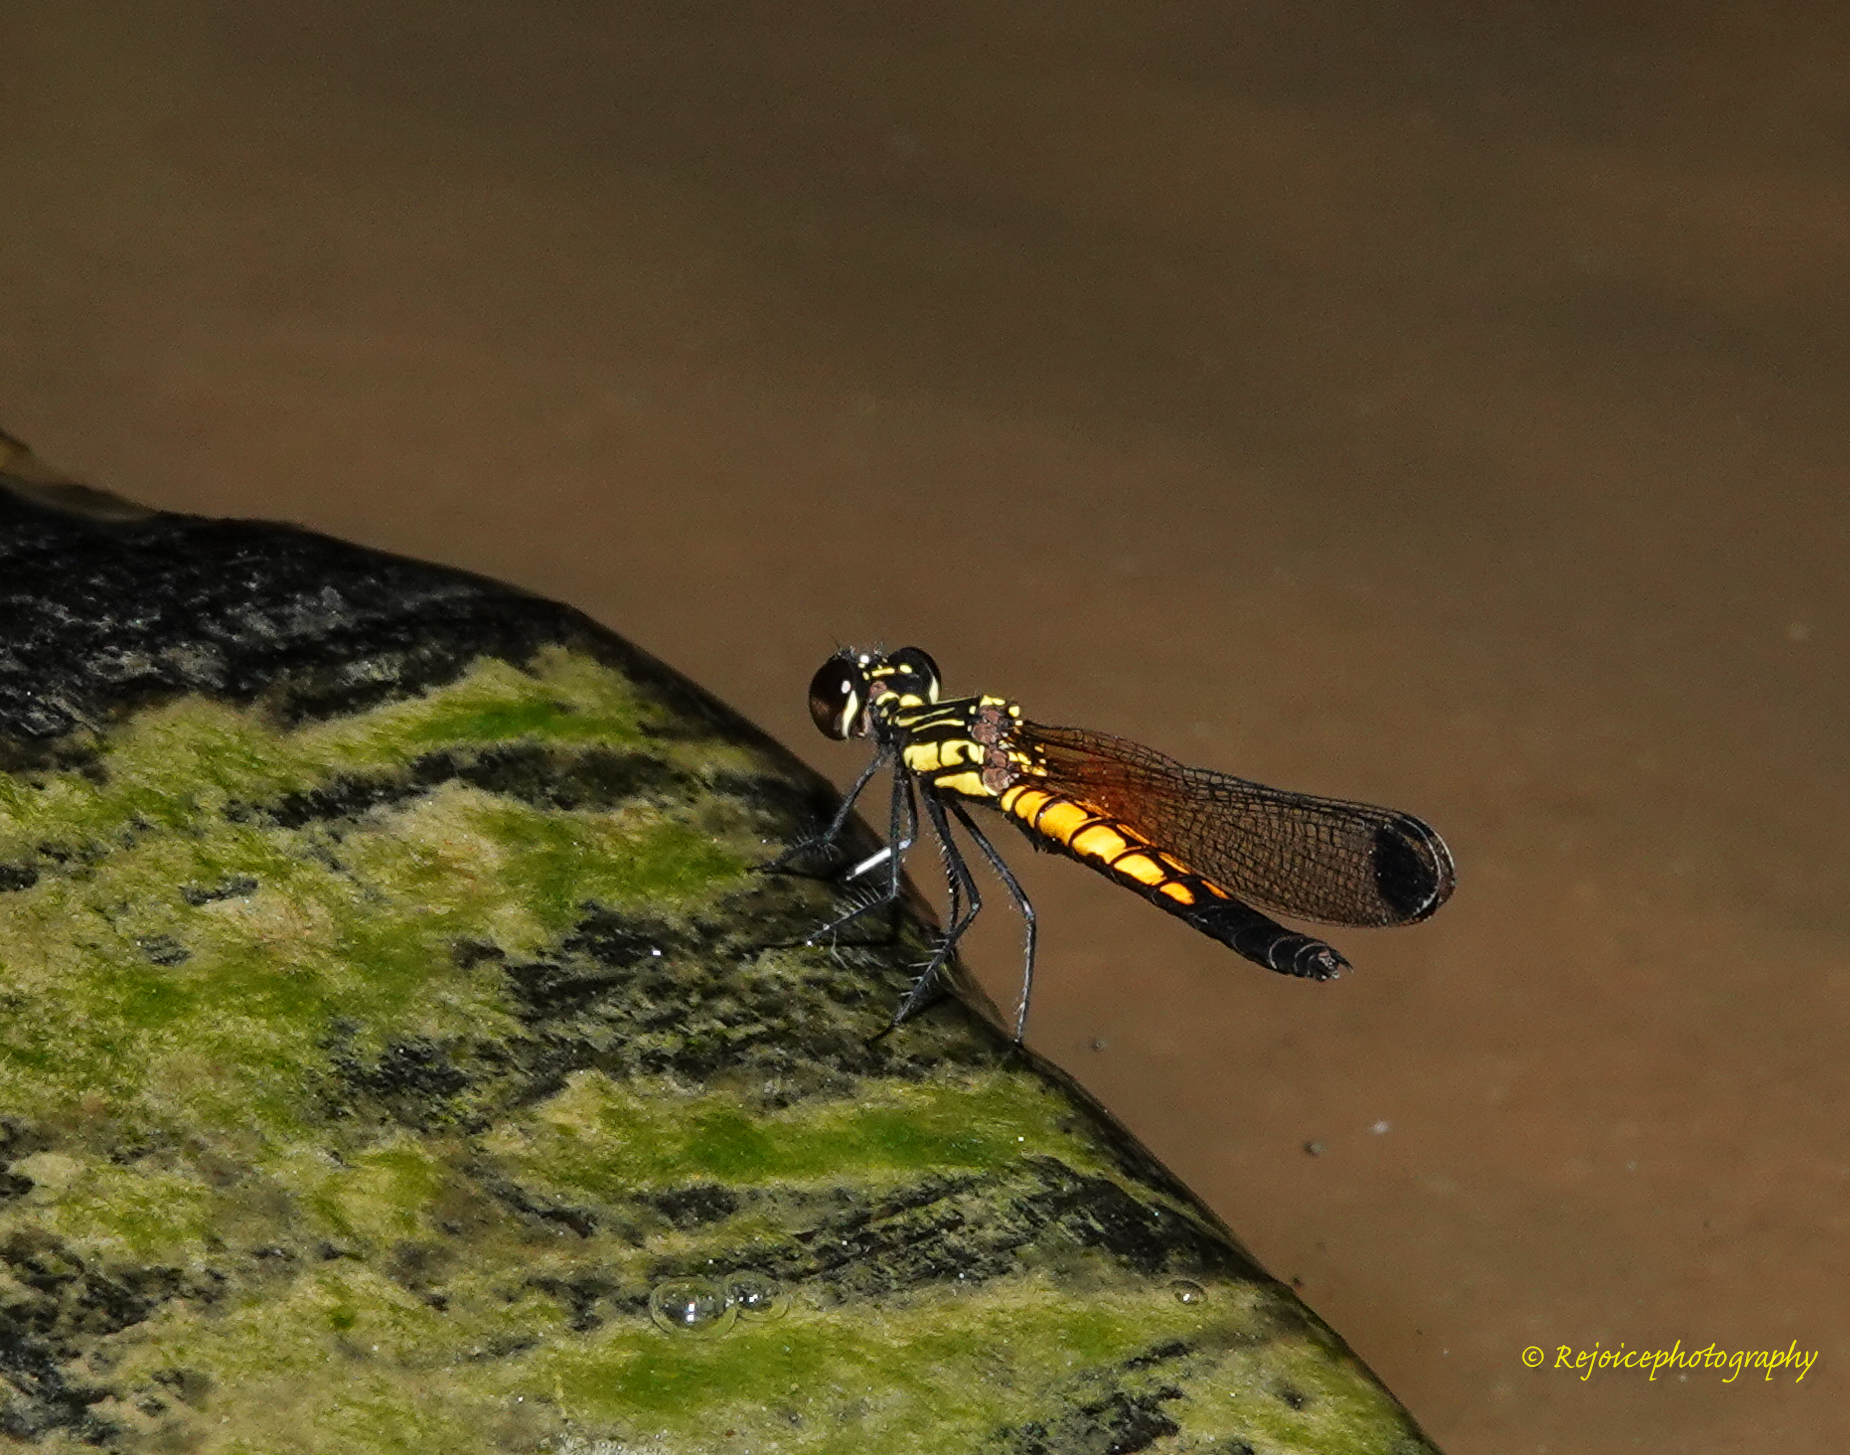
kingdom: Animalia
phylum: Arthropoda
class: Insecta
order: Odonata
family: Chlorocyphidae
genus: Libellago
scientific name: Libellago lineata
